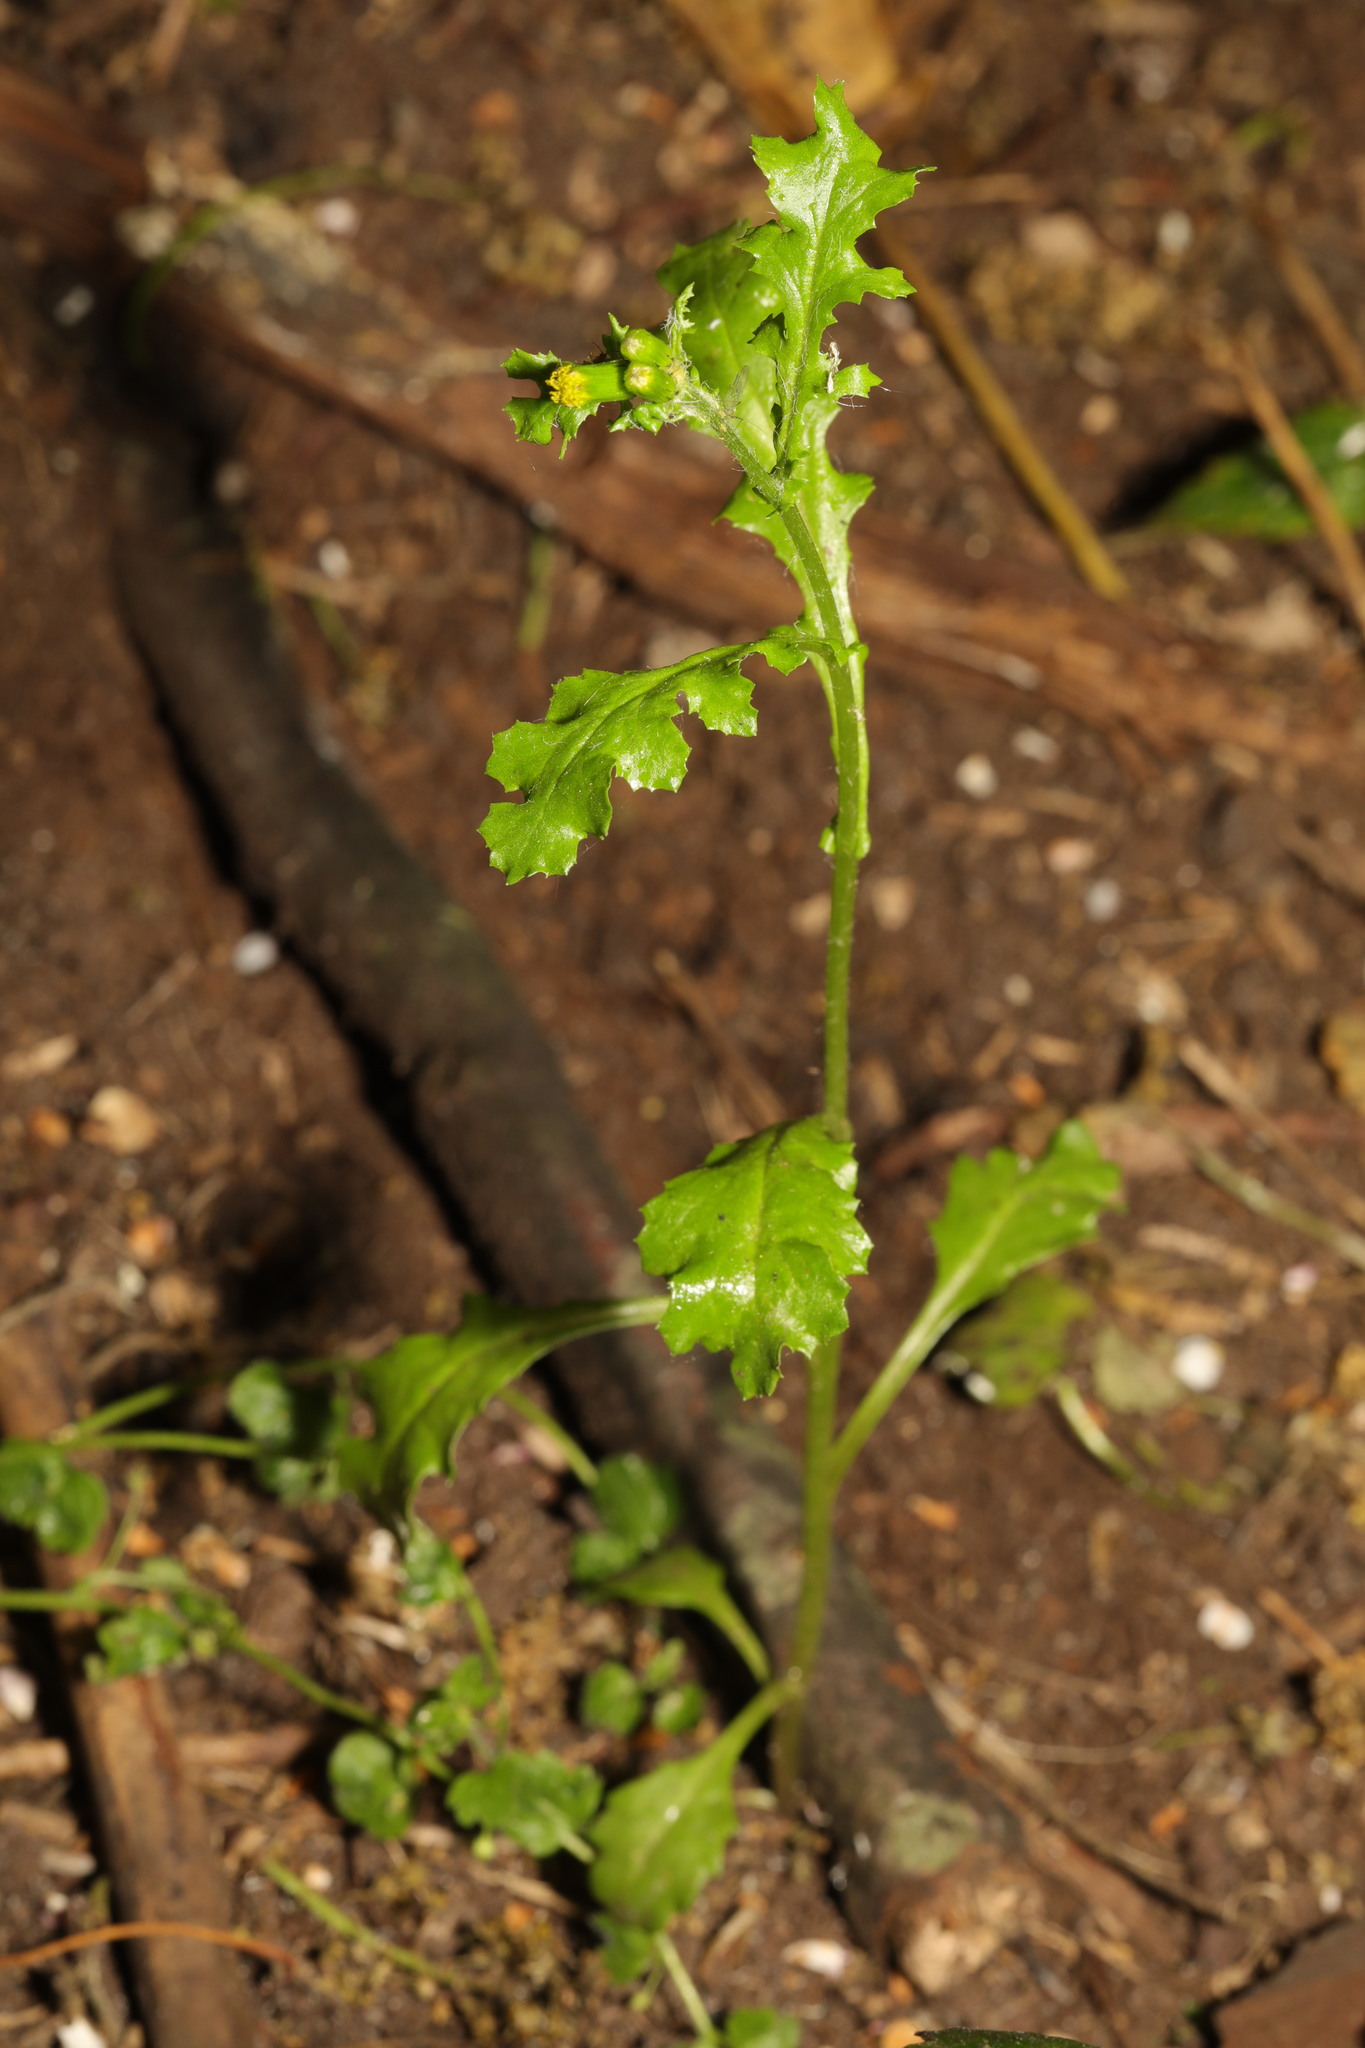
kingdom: Plantae
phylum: Tracheophyta
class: Magnoliopsida
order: Asterales
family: Asteraceae
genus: Senecio
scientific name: Senecio vulgaris
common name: Old-man-in-the-spring
